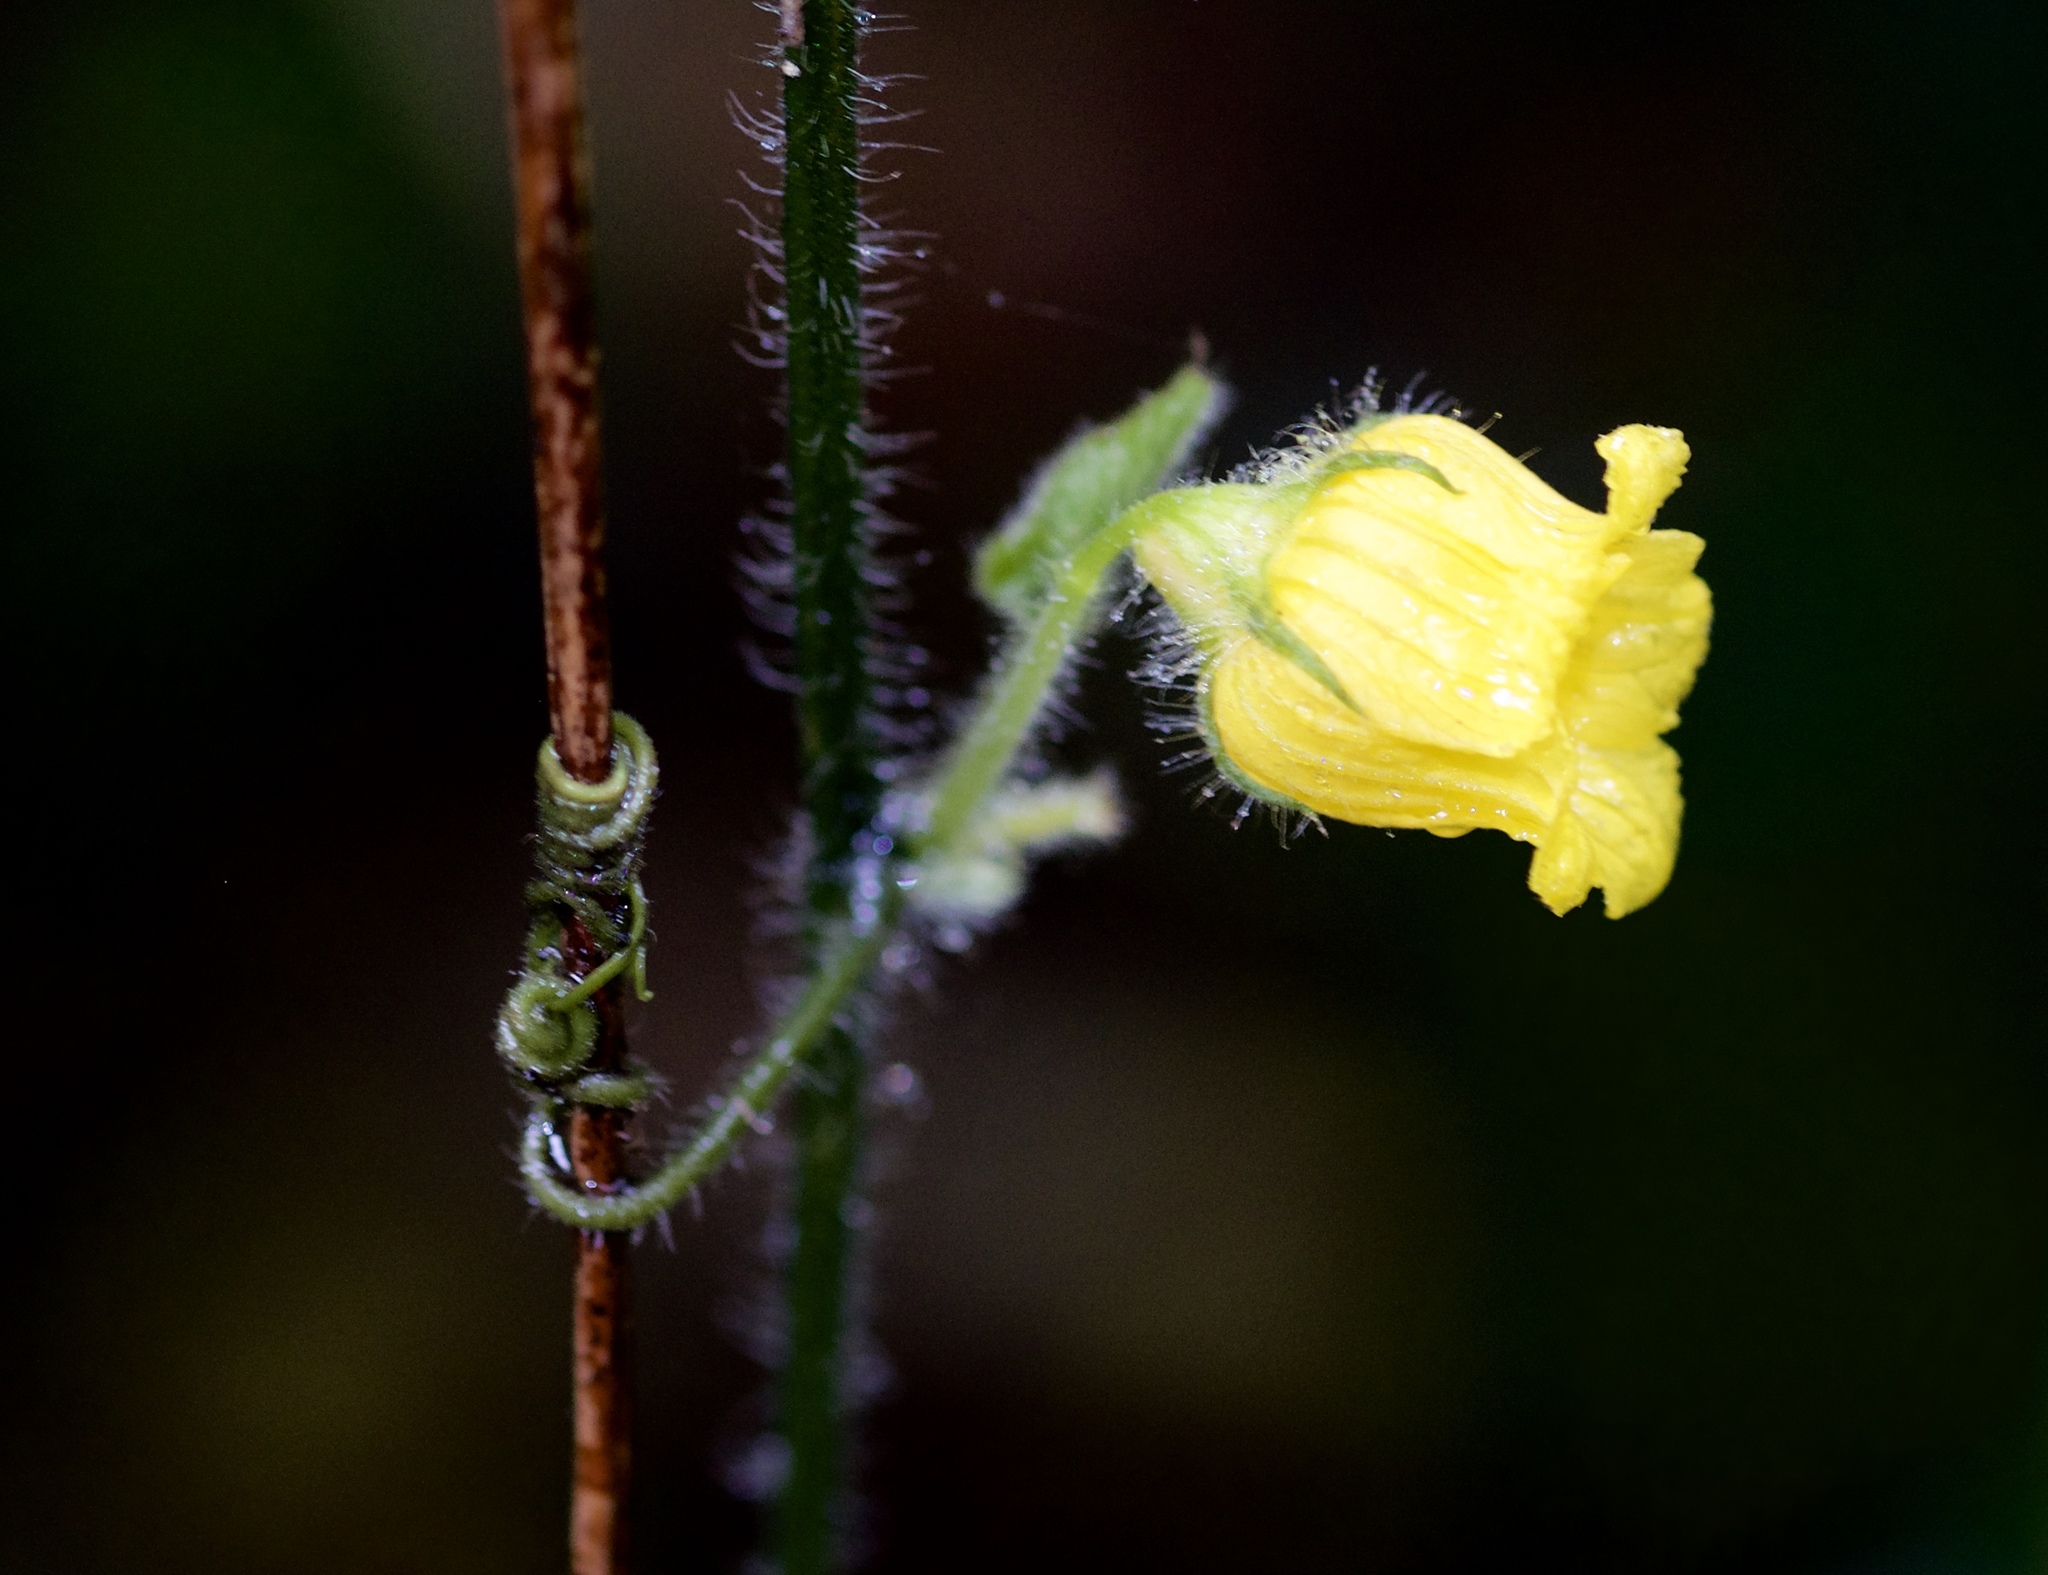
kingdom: Plantae
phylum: Tracheophyta
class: Magnoliopsida
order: Cucurbitales
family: Cucurbitaceae
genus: Thladiantha
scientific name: Thladiantha angustisepala
